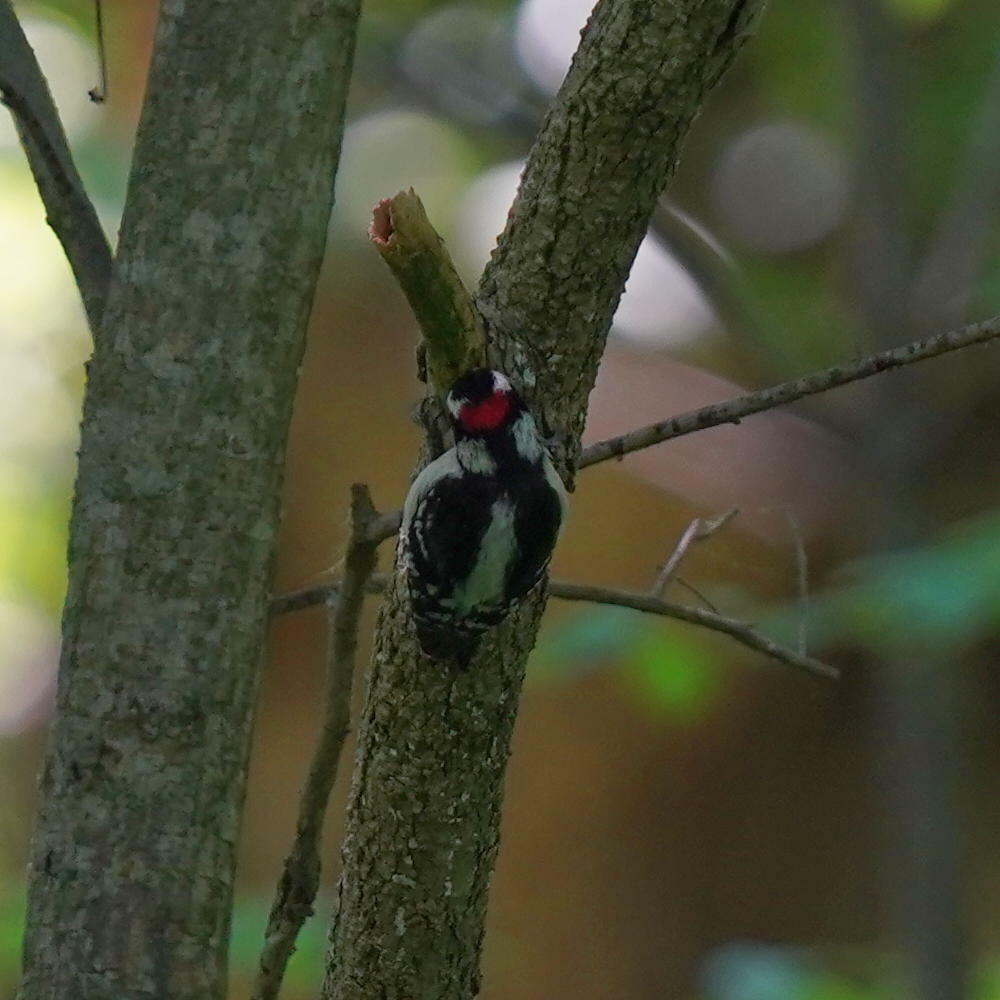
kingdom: Animalia
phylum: Chordata
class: Aves
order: Piciformes
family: Picidae
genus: Dryobates
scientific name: Dryobates pubescens
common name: Downy woodpecker
